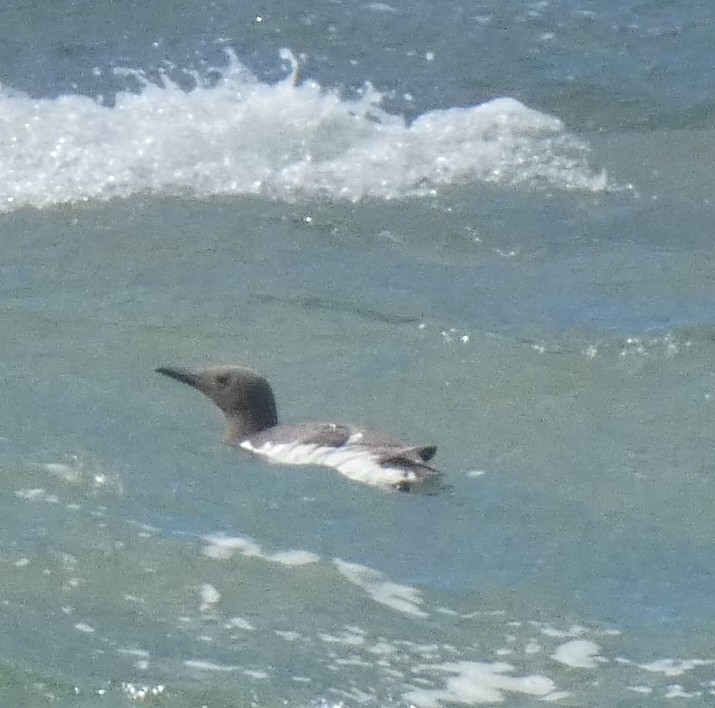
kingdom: Animalia
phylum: Chordata
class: Aves
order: Charadriiformes
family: Alcidae
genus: Uria
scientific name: Uria aalge
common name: Common murre
